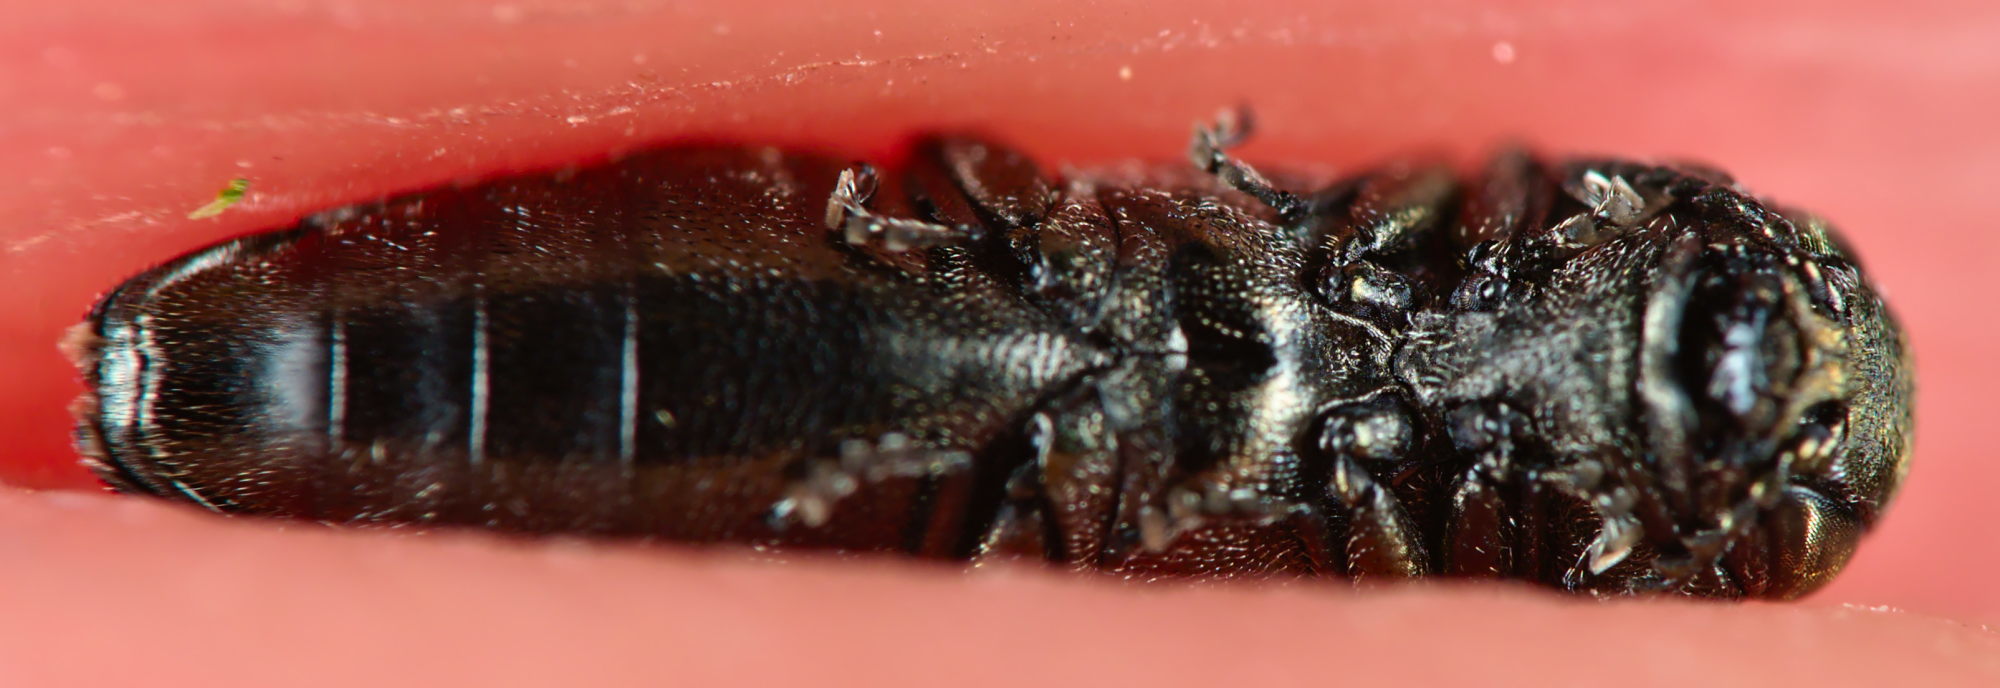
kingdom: Animalia
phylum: Arthropoda
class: Insecta
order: Coleoptera
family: Buprestidae
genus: Agrilus
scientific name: Agrilus convexicollis
